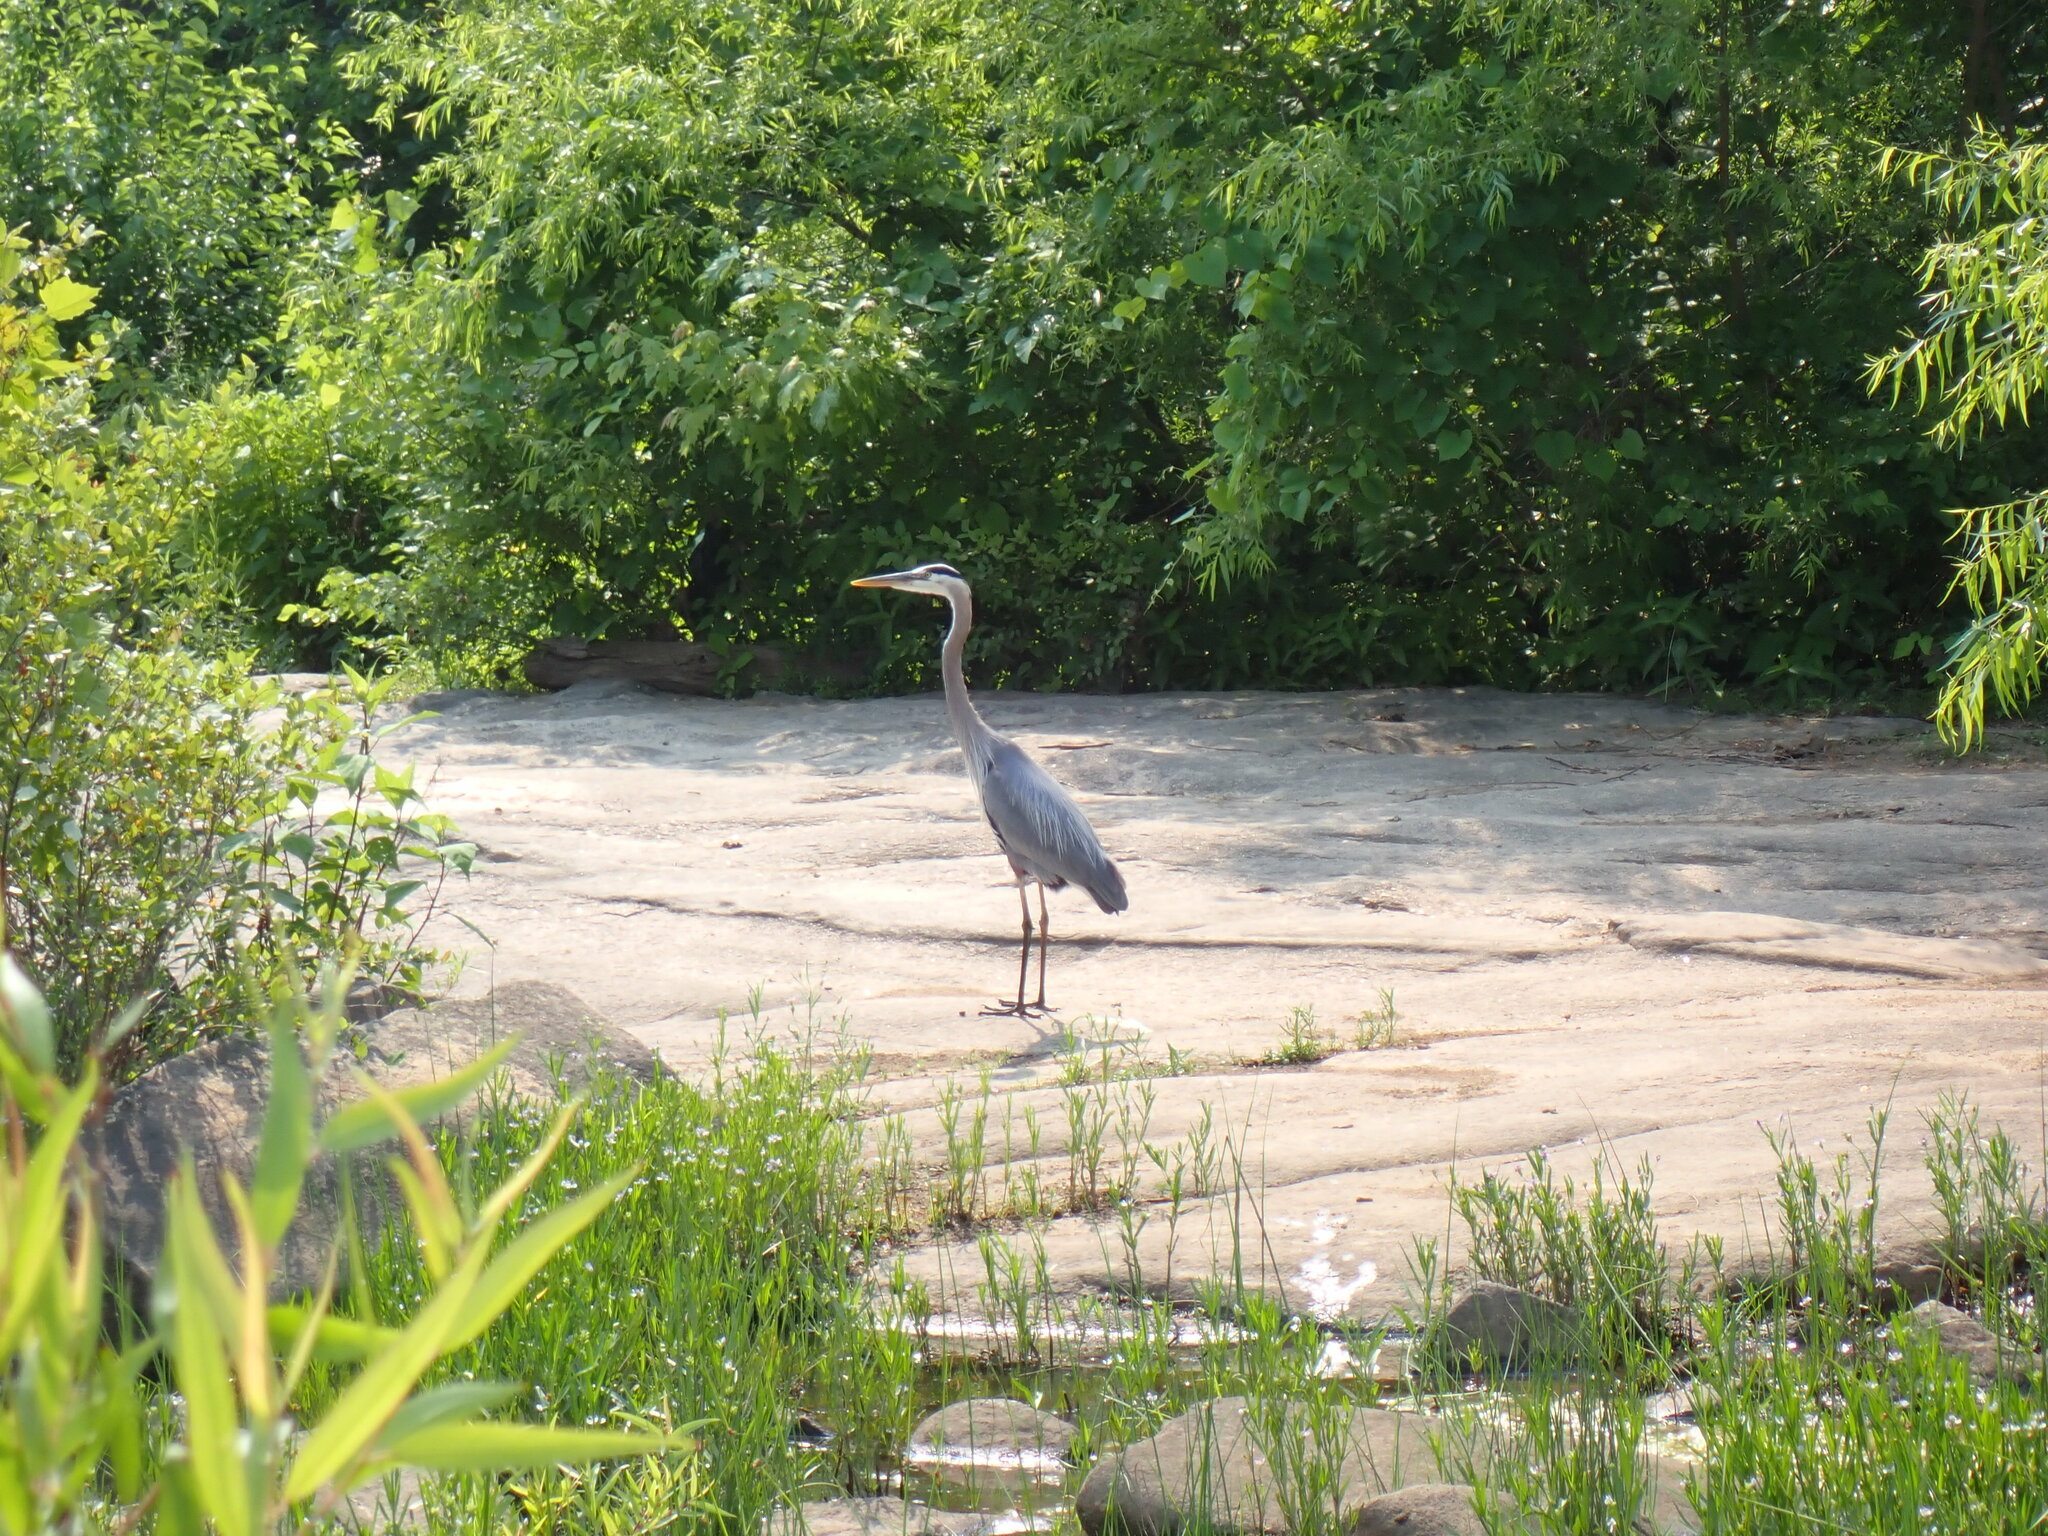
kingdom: Animalia
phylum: Chordata
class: Aves
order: Pelecaniformes
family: Ardeidae
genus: Ardea
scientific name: Ardea herodias
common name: Great blue heron
